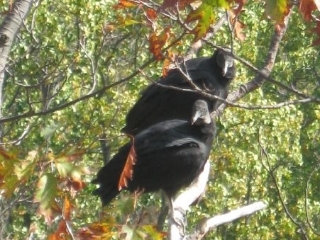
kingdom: Animalia
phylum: Chordata
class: Aves
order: Accipitriformes
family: Cathartidae
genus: Coragyps
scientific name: Coragyps atratus
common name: Black vulture
